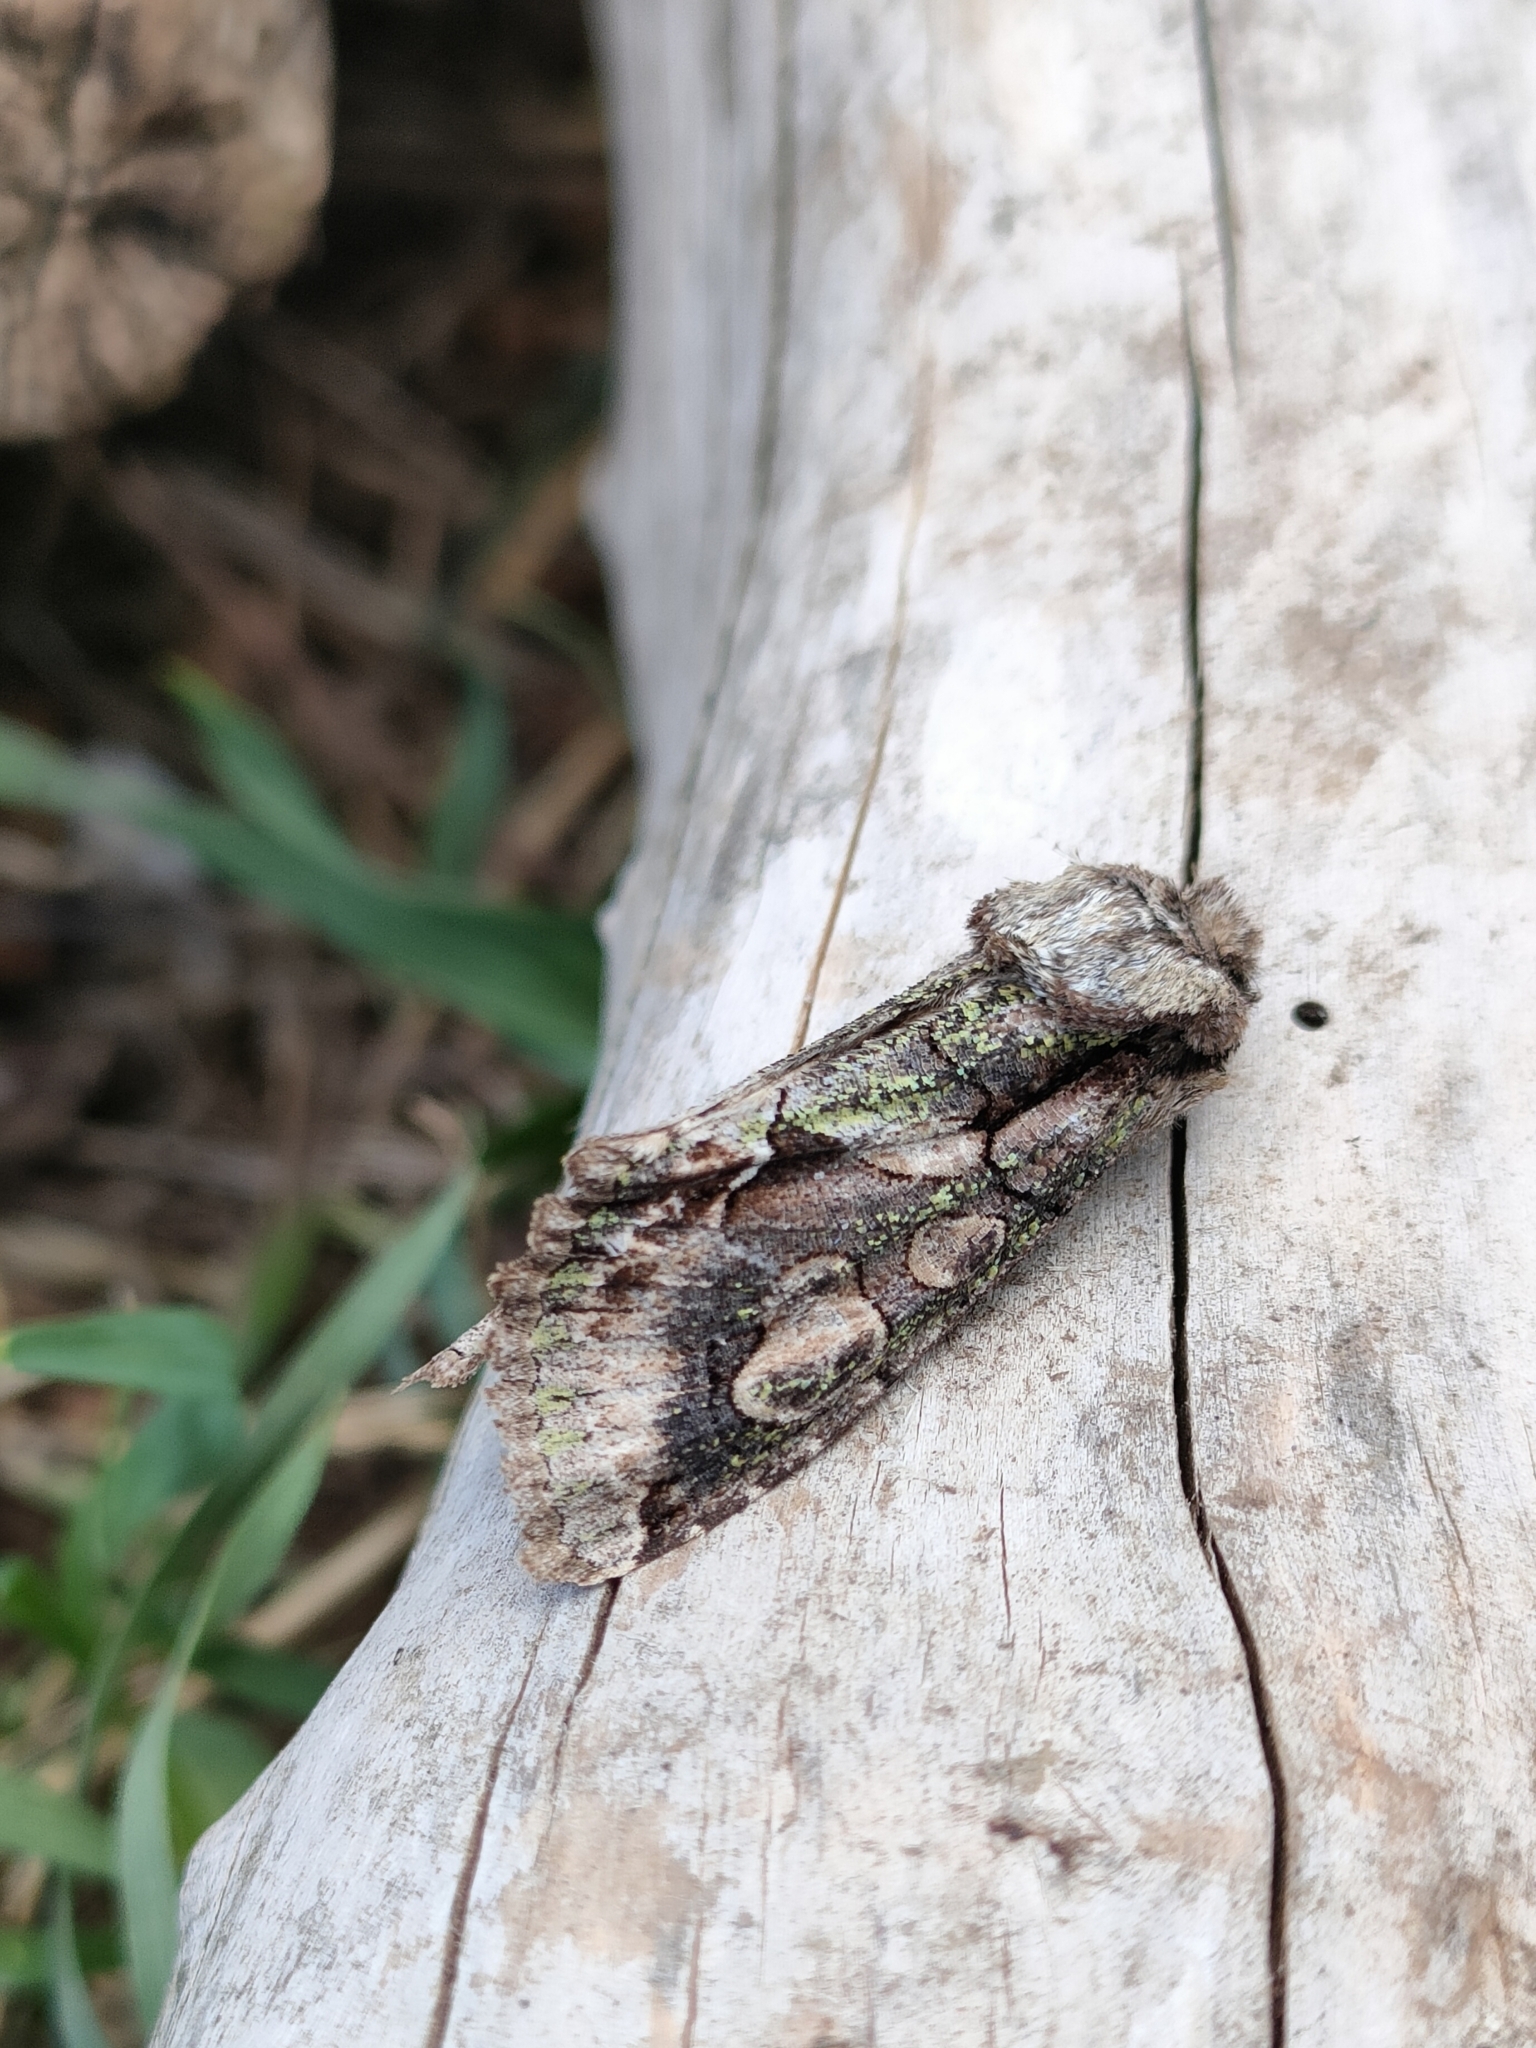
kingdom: Animalia
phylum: Arthropoda
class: Insecta
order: Lepidoptera
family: Noctuidae
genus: Allophyes
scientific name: Allophyes alfaroi
